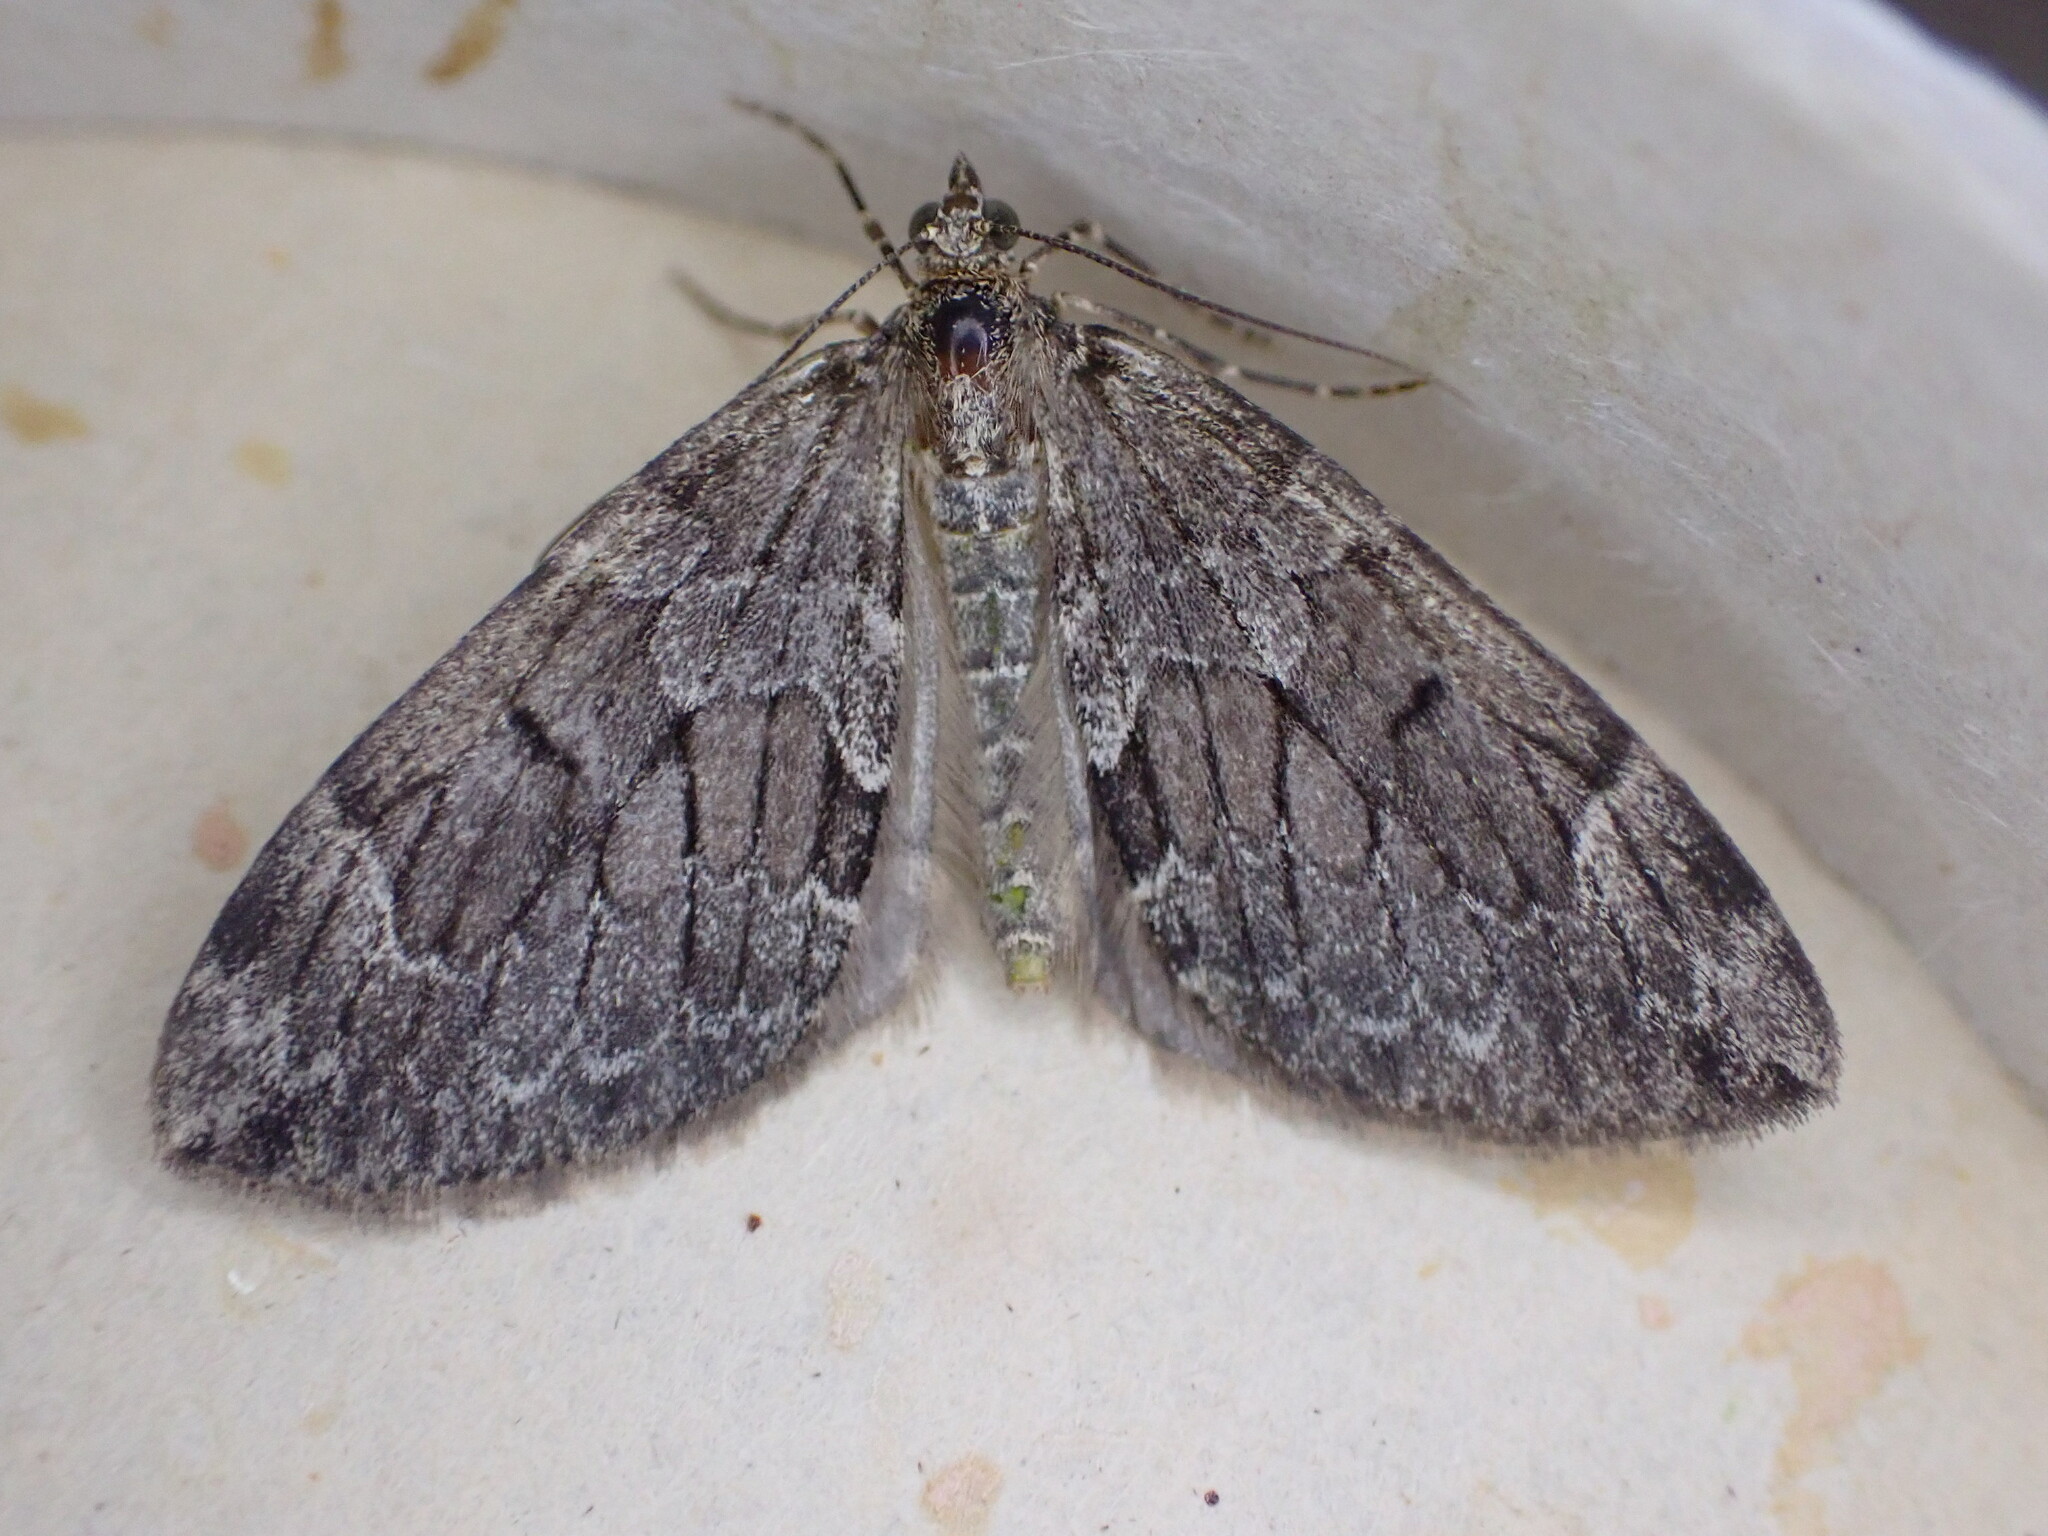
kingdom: Animalia
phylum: Arthropoda
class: Insecta
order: Lepidoptera
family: Geometridae
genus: Thera
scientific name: Thera britannica
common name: Spruce carpet
